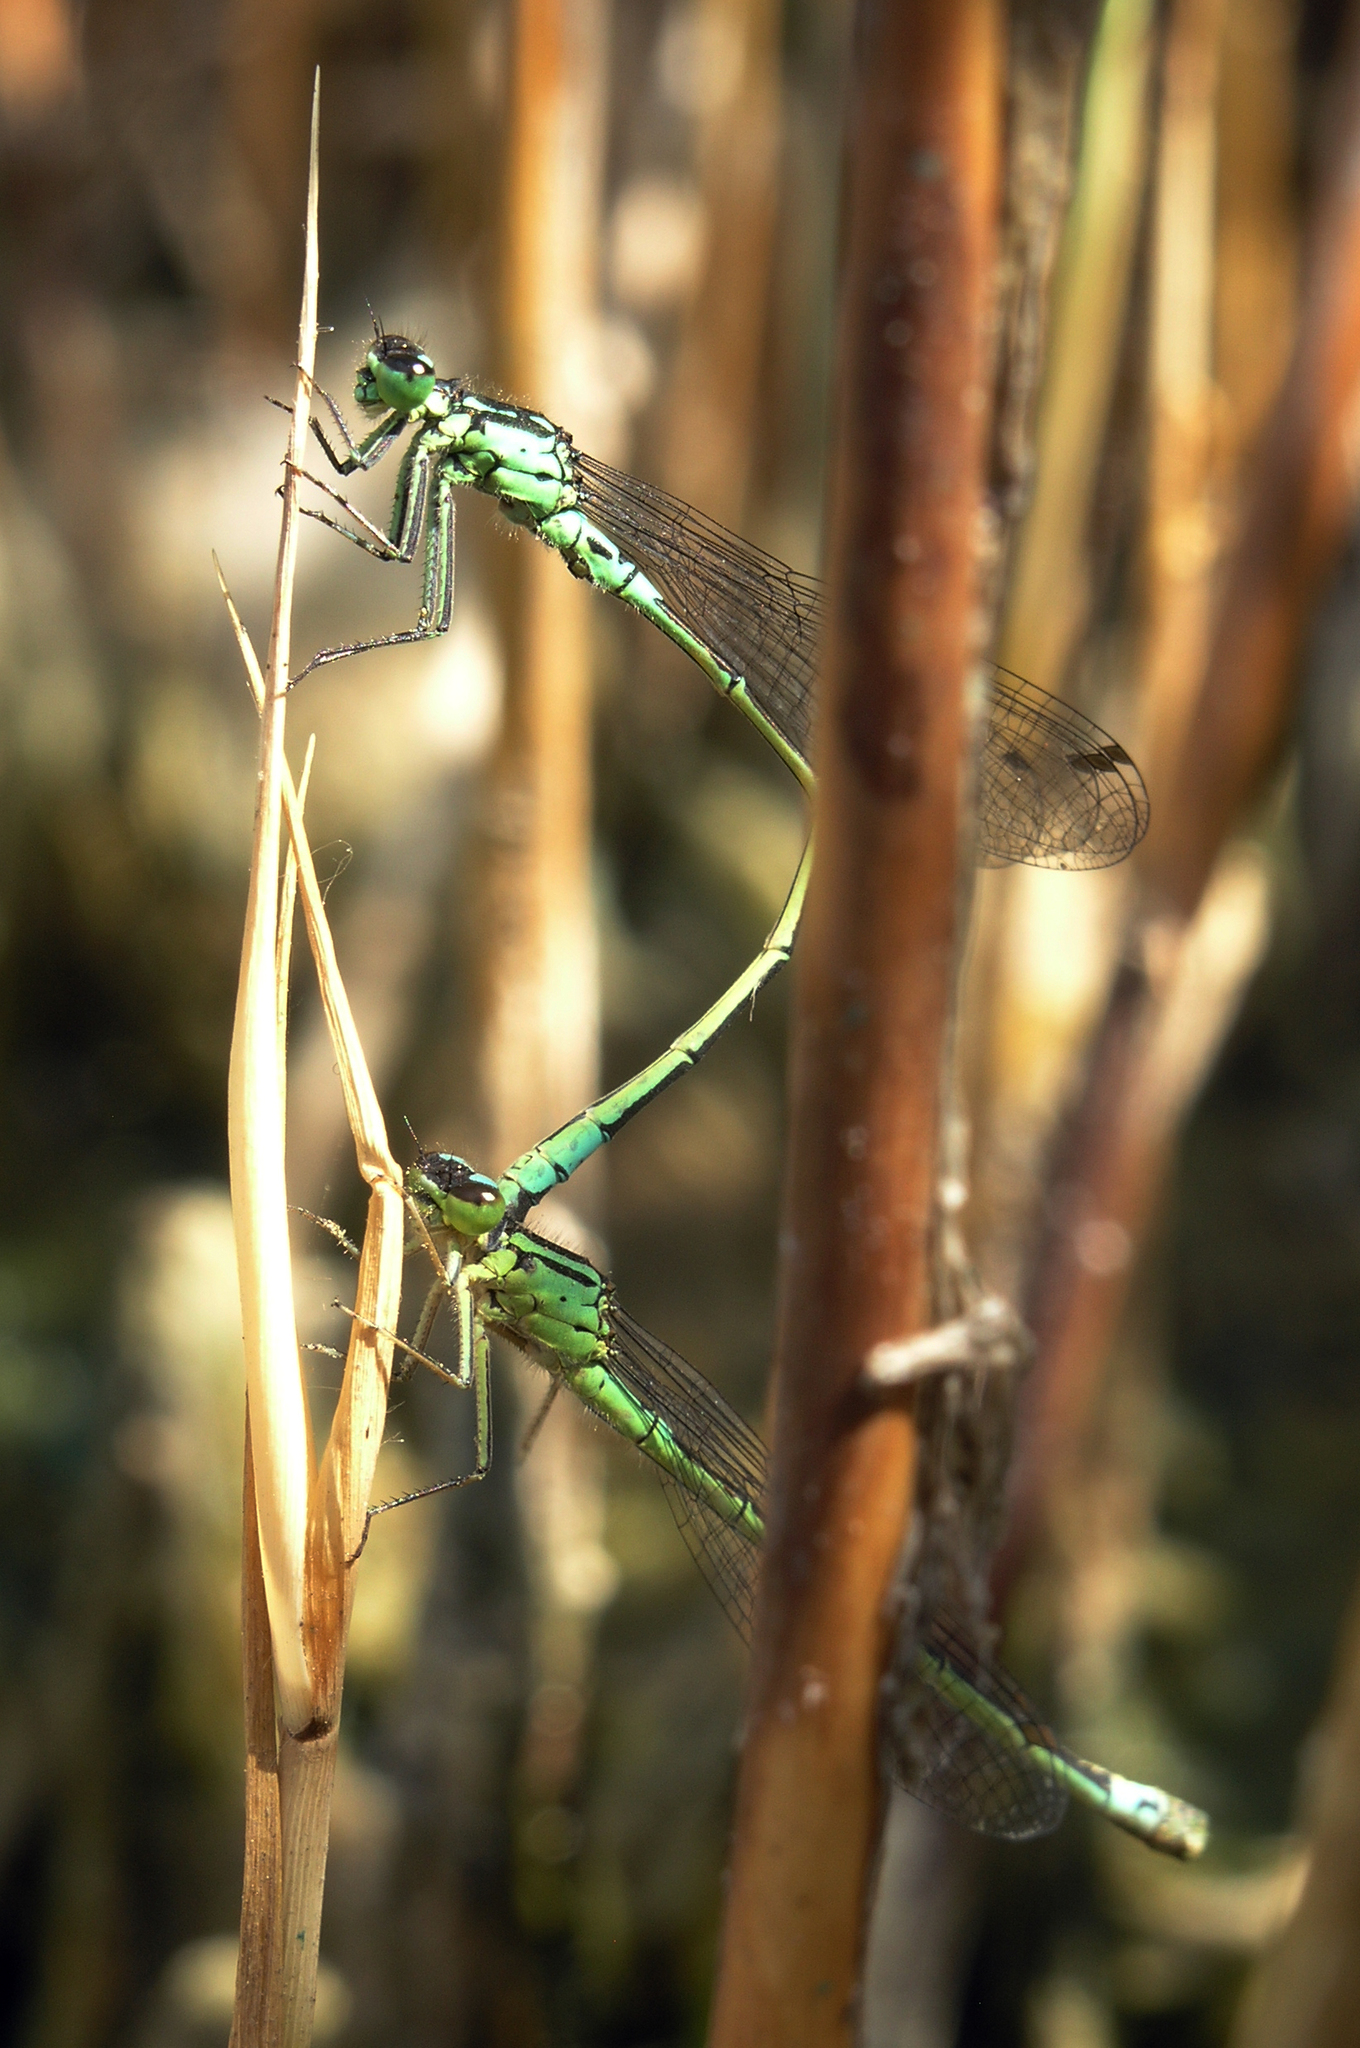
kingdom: Animalia
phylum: Arthropoda
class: Insecta
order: Odonata
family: Coenagrionidae
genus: Coenagrion
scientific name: Coenagrion armatum
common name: Dark bluet
